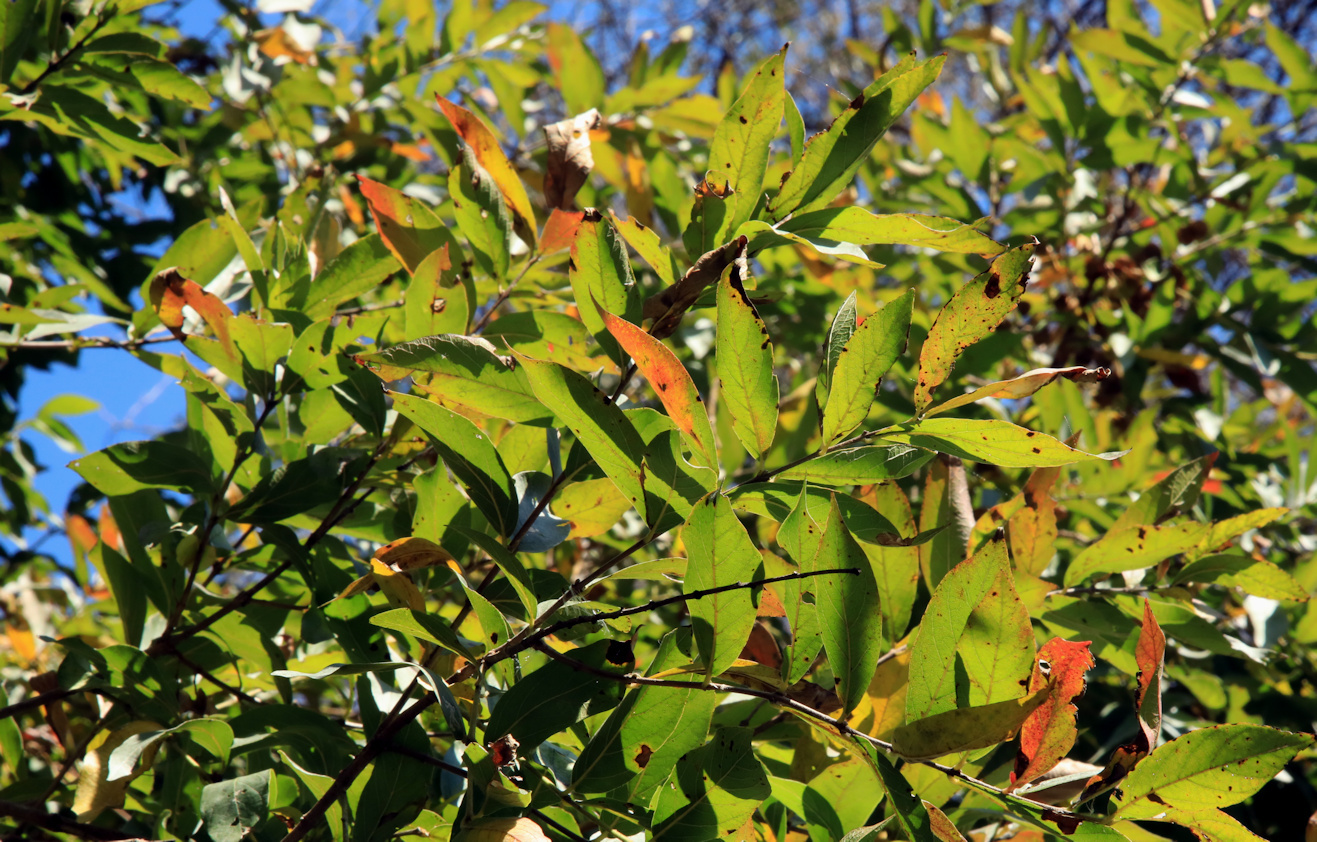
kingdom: Plantae
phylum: Tracheophyta
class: Magnoliopsida
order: Myrtales
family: Combretaceae
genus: Combretum
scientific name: Combretum erythrophyllum
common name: Bush-willow
